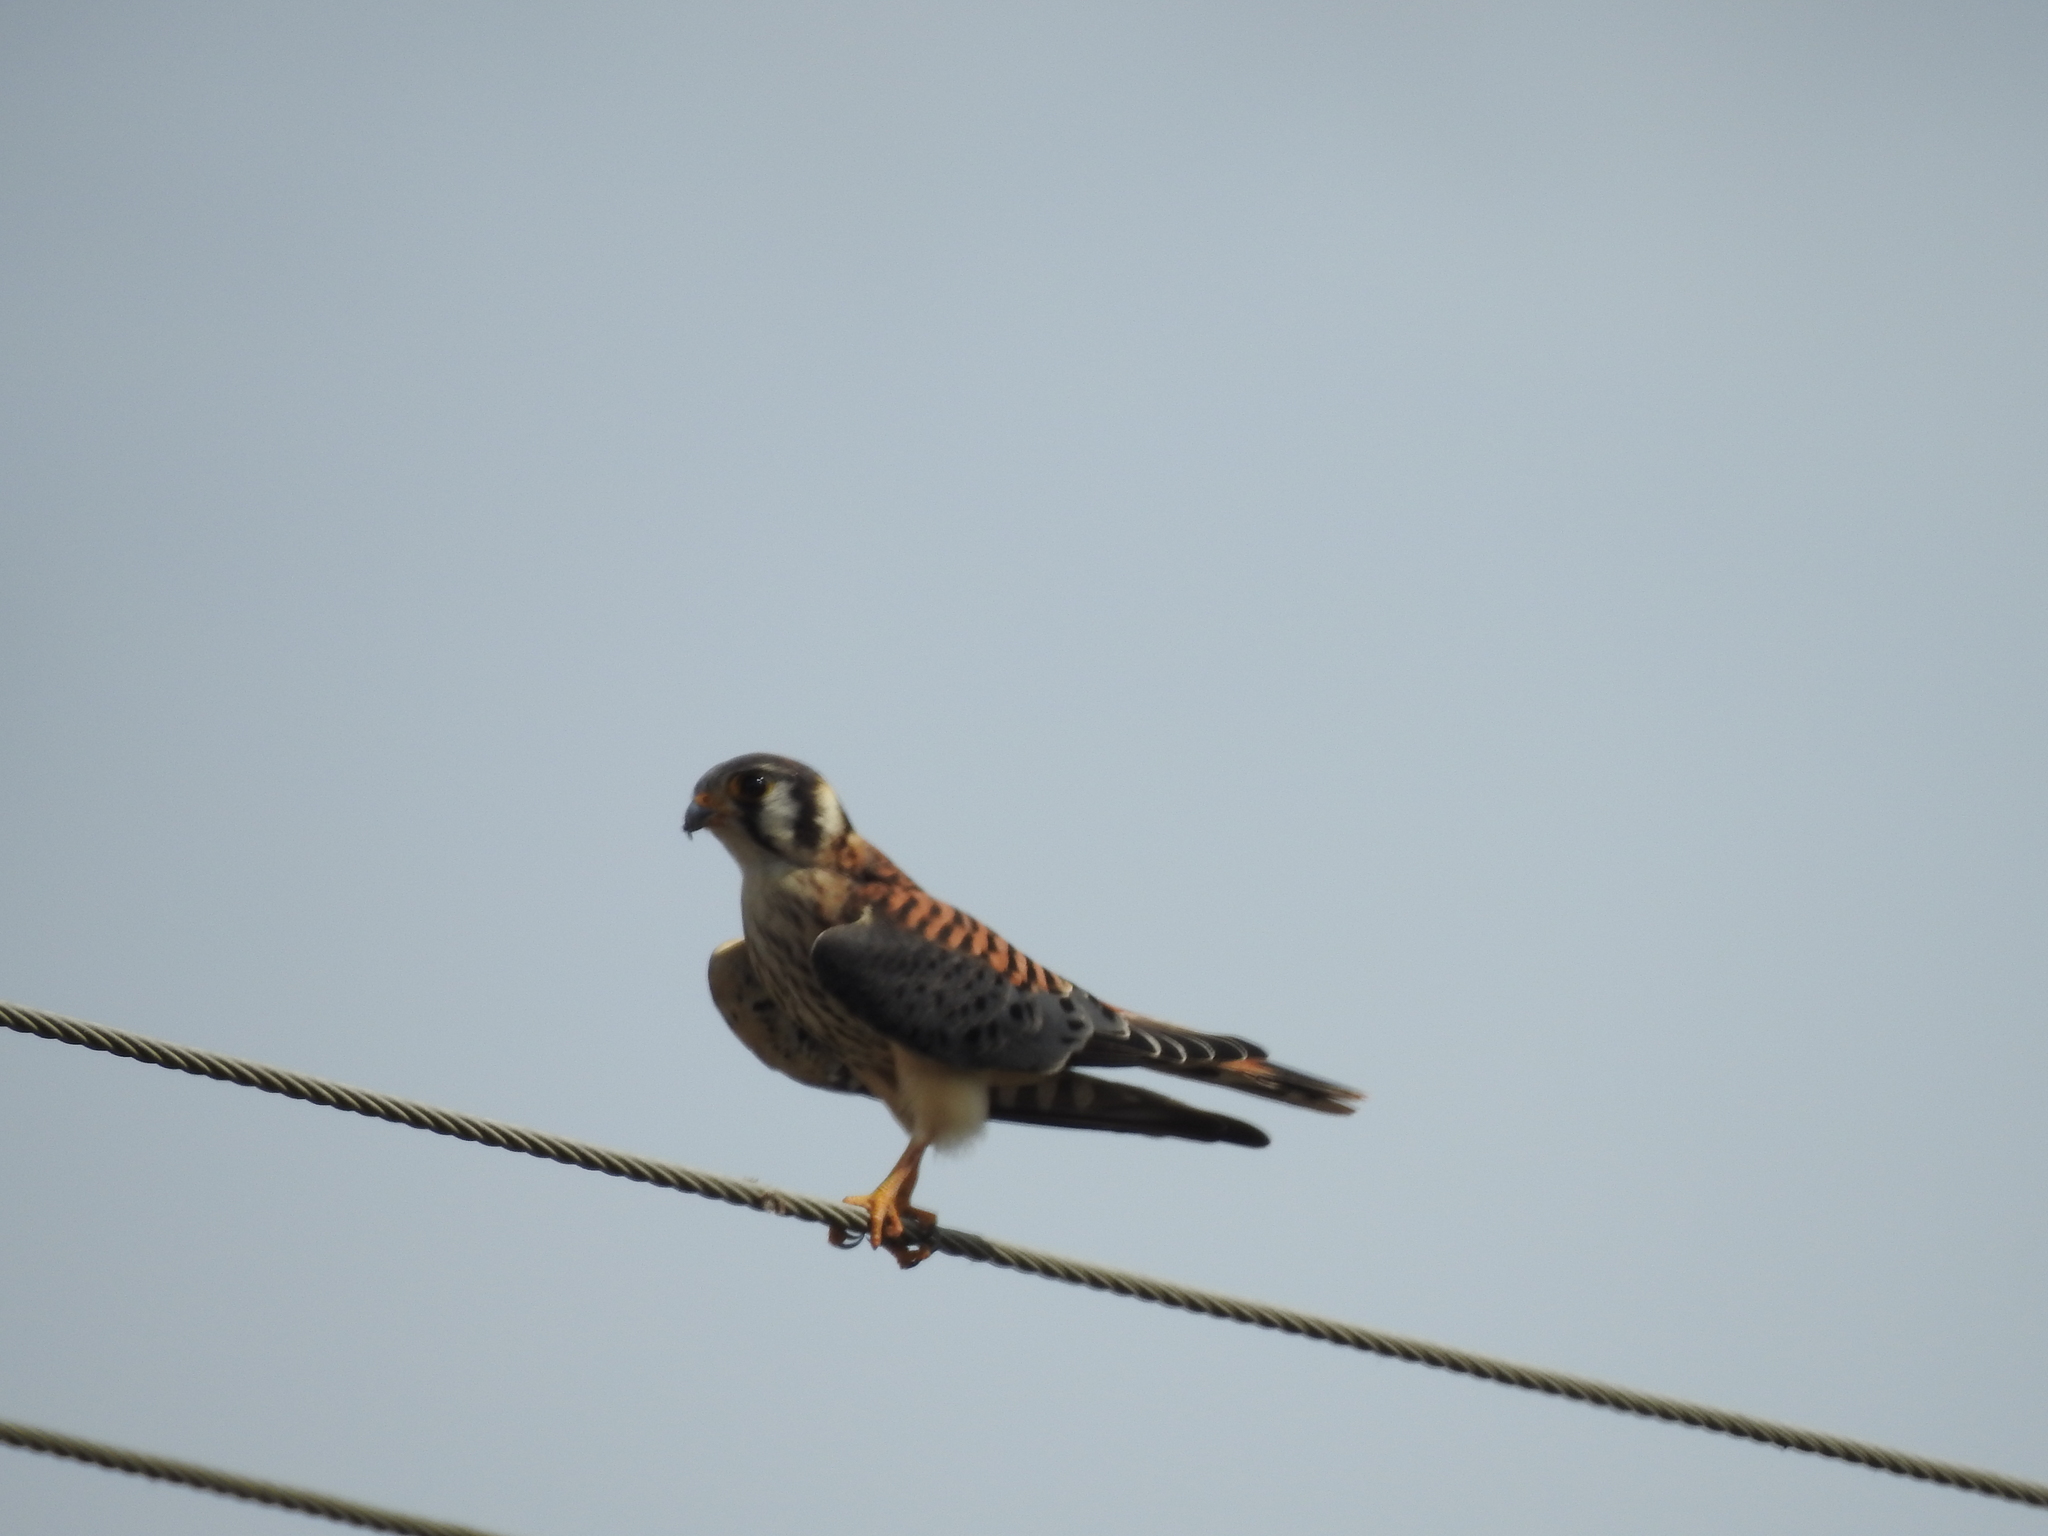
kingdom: Animalia
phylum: Chordata
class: Aves
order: Falconiformes
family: Falconidae
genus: Falco
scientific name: Falco sparverius
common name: American kestrel
